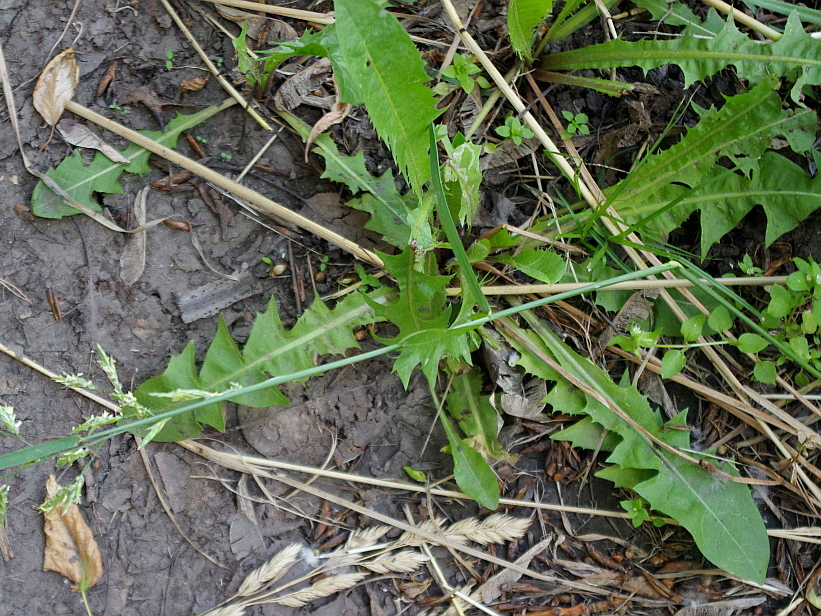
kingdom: Plantae
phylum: Tracheophyta
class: Magnoliopsida
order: Asterales
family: Asteraceae
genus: Taraxacum
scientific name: Taraxacum officinale
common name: Common dandelion
